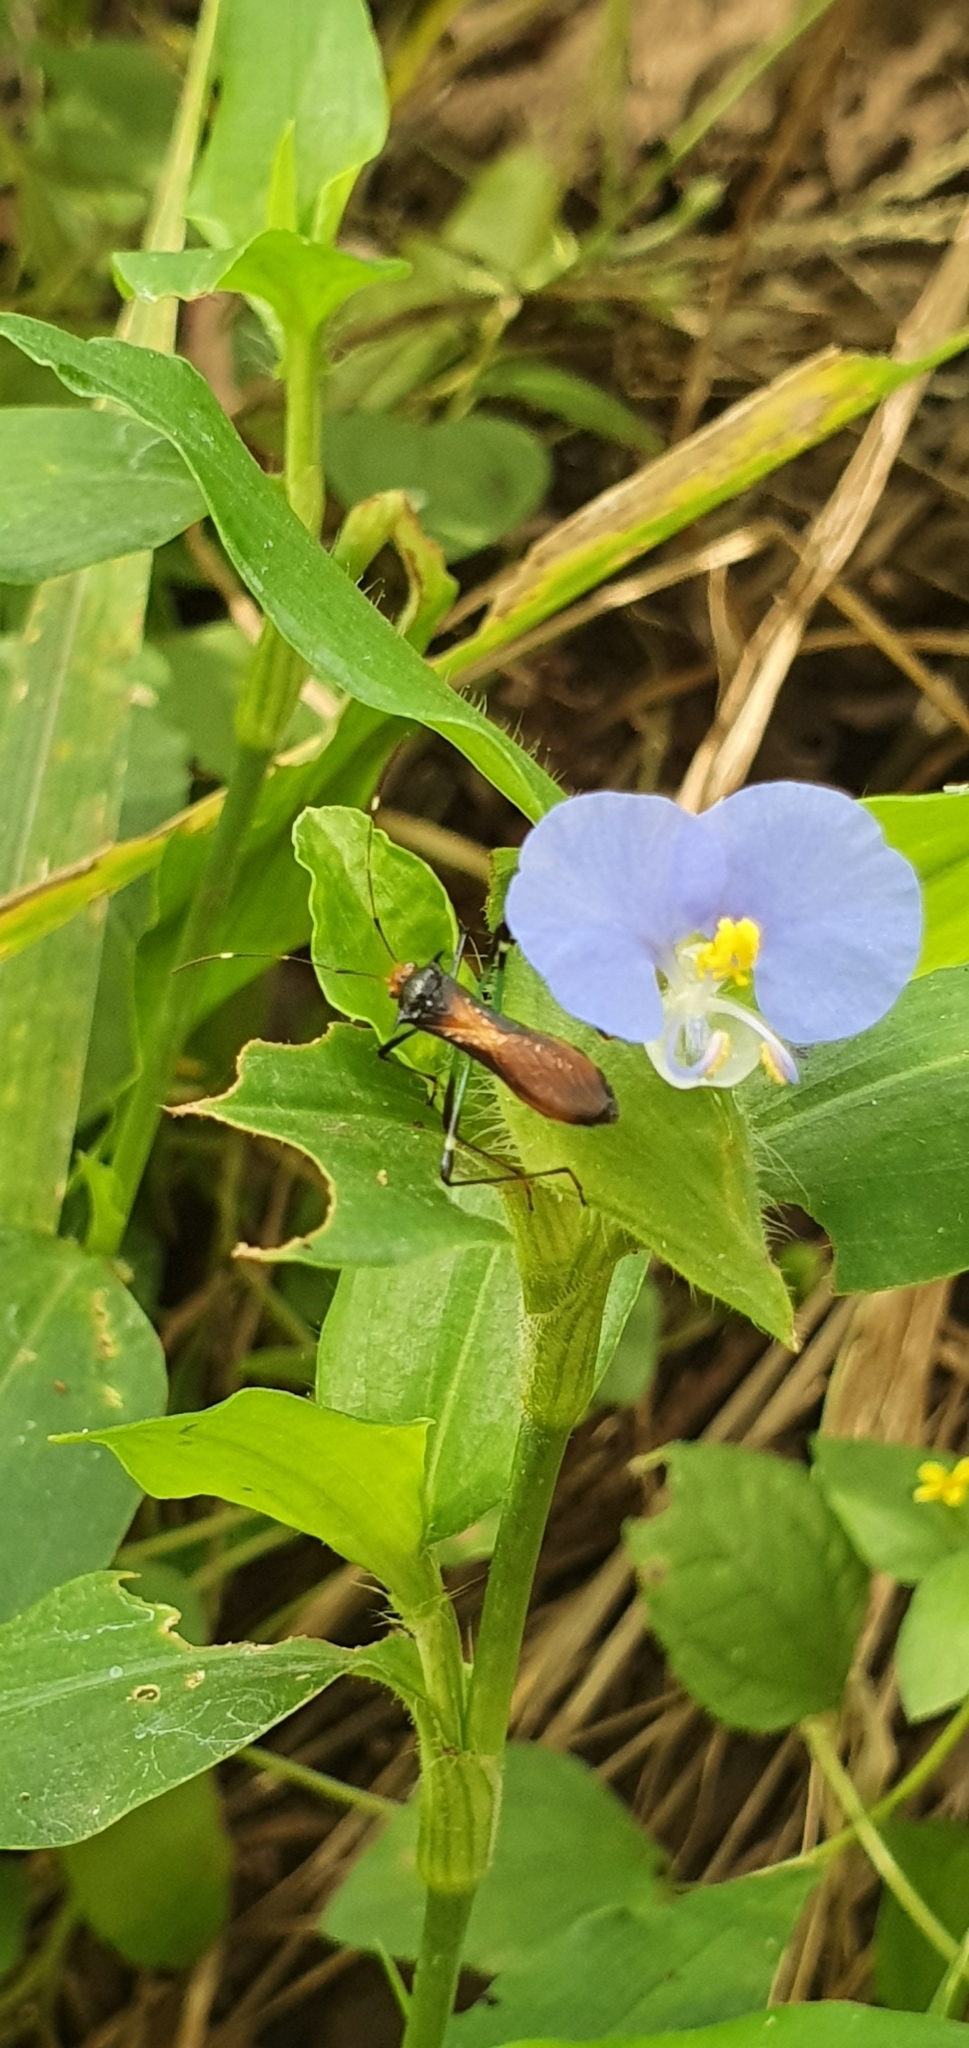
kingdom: Animalia
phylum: Arthropoda
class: Insecta
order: Hemiptera
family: Alydidae
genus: Noliphus
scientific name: Noliphus erythrocephalus
